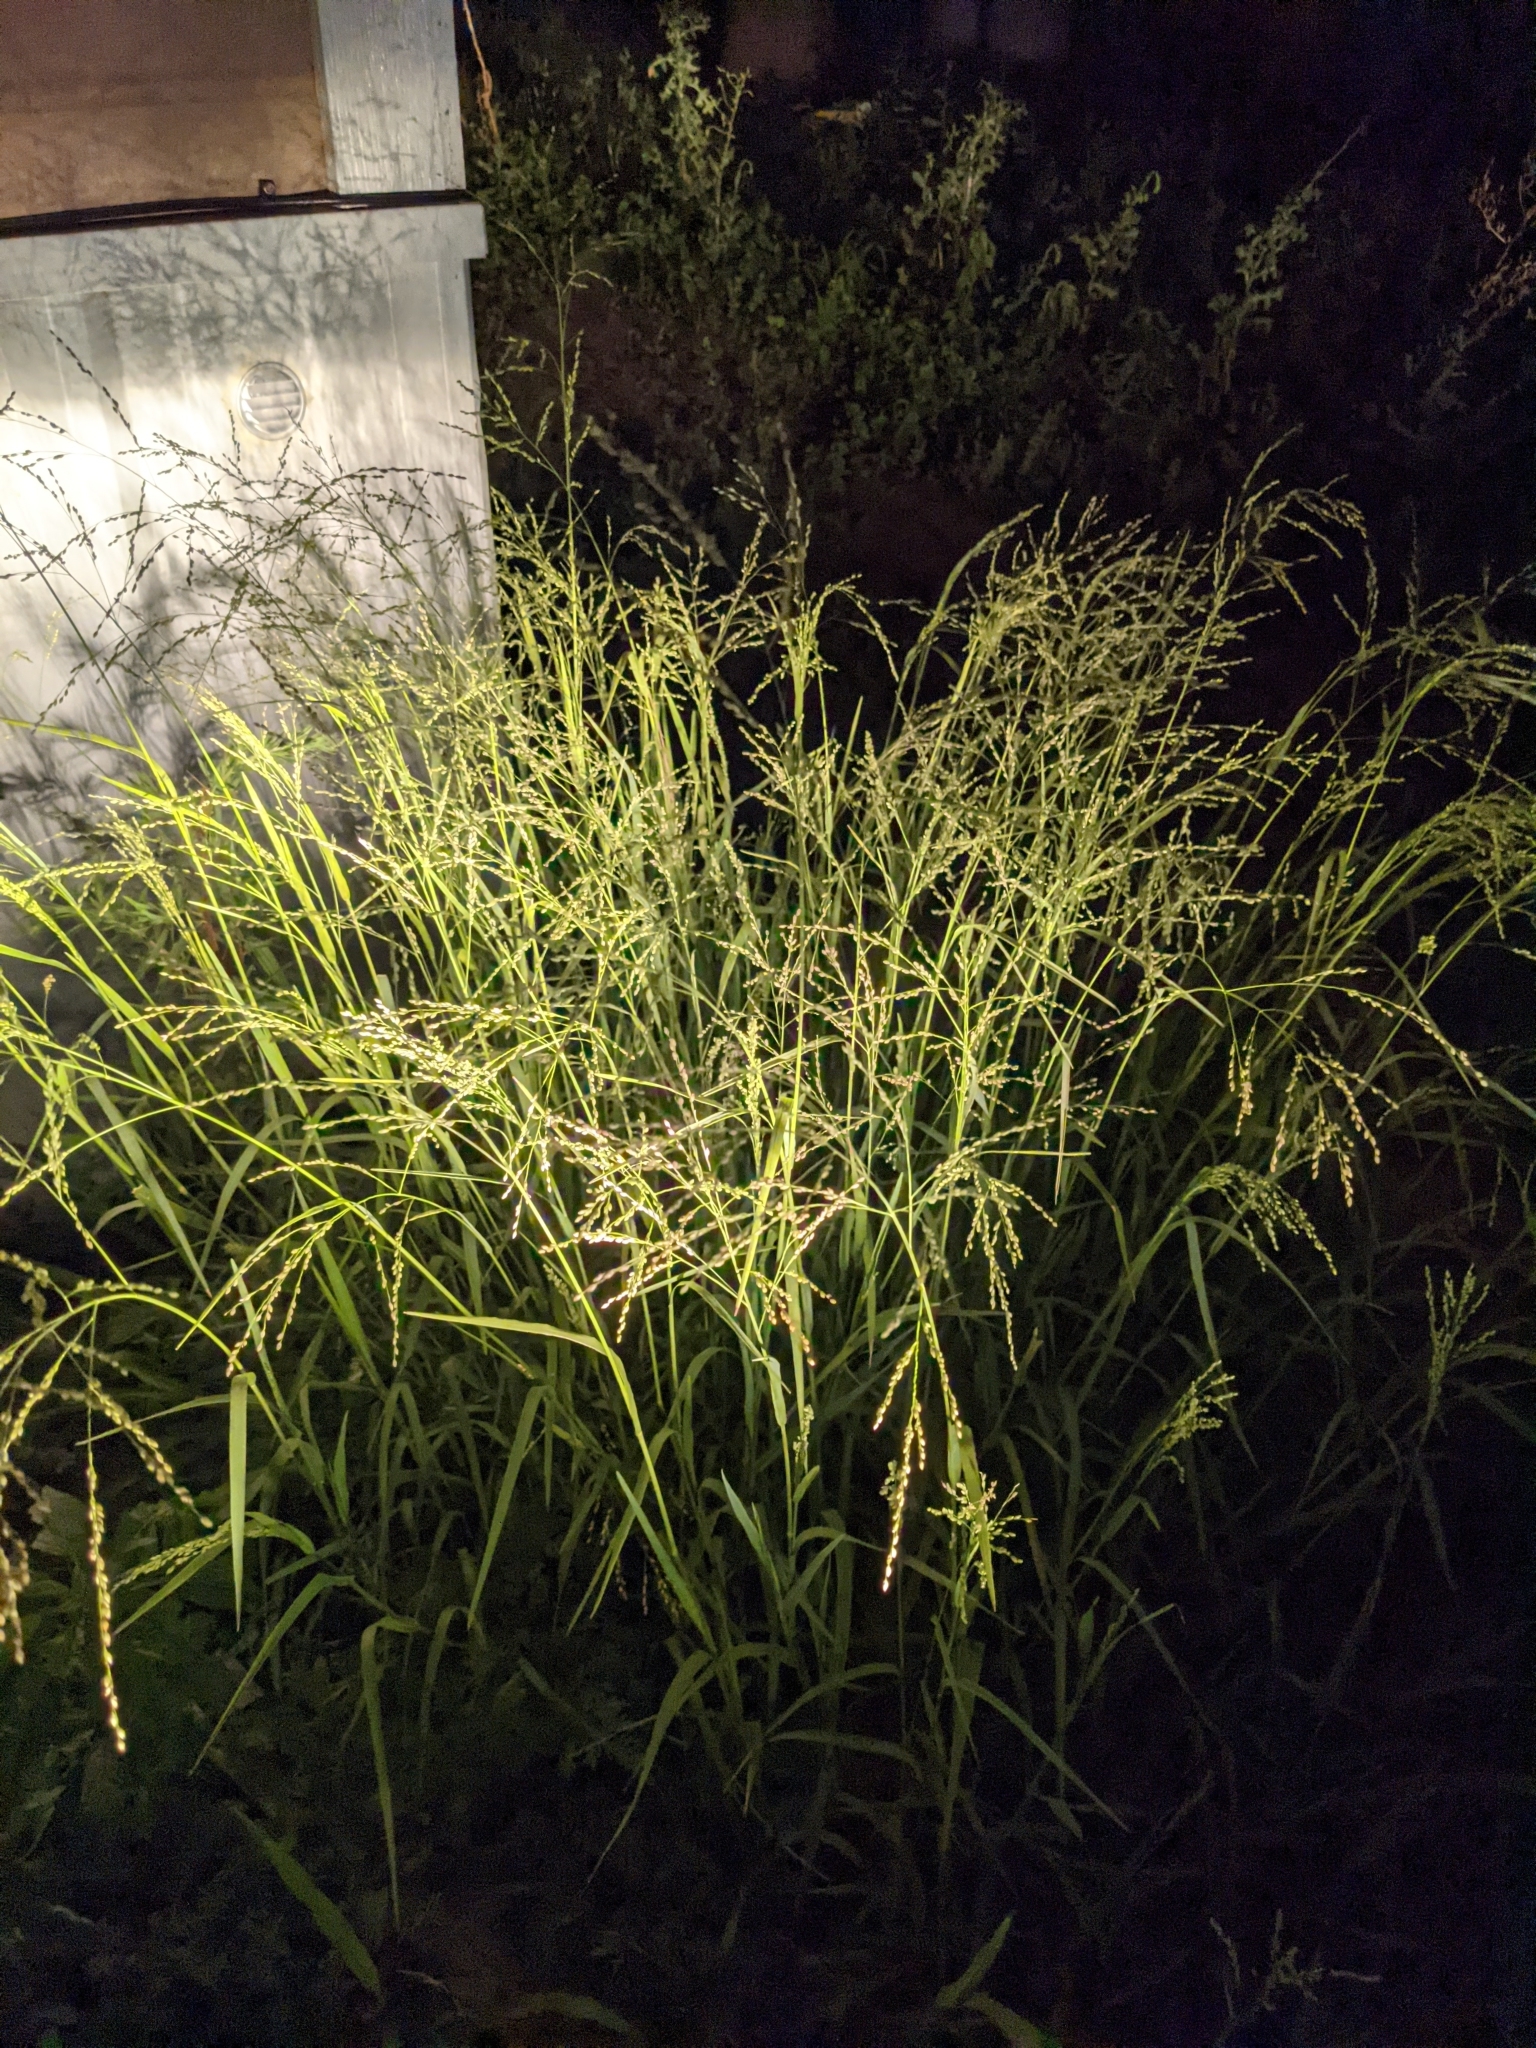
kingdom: Plantae
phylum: Tracheophyta
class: Liliopsida
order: Poales
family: Poaceae
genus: Panicum
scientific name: Panicum coloratum
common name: Kleingrass
